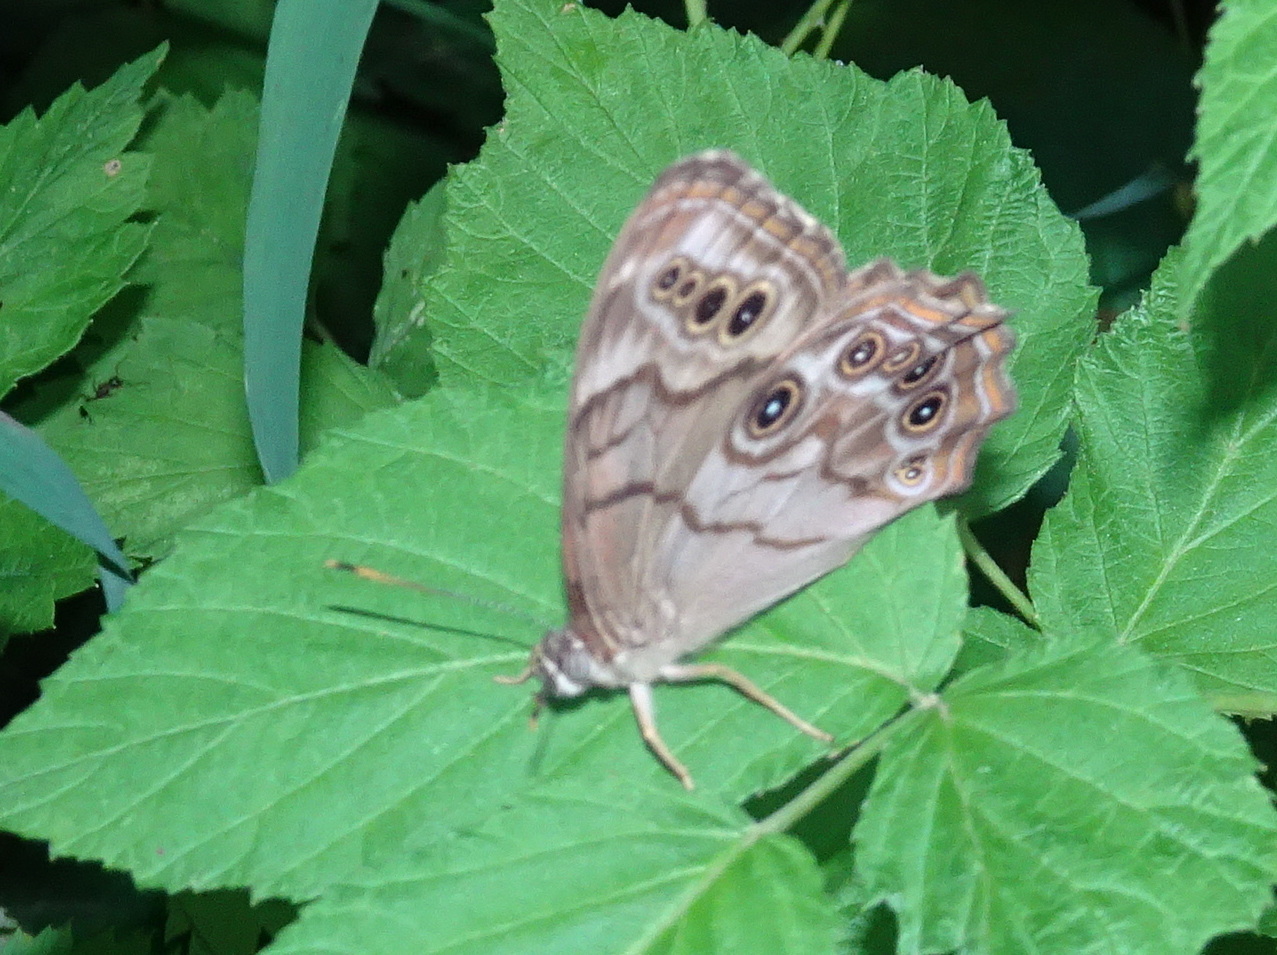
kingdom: Animalia
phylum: Arthropoda
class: Insecta
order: Lepidoptera
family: Nymphalidae
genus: Lethe
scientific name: Lethe anthedon
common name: Northern pearly-eye
